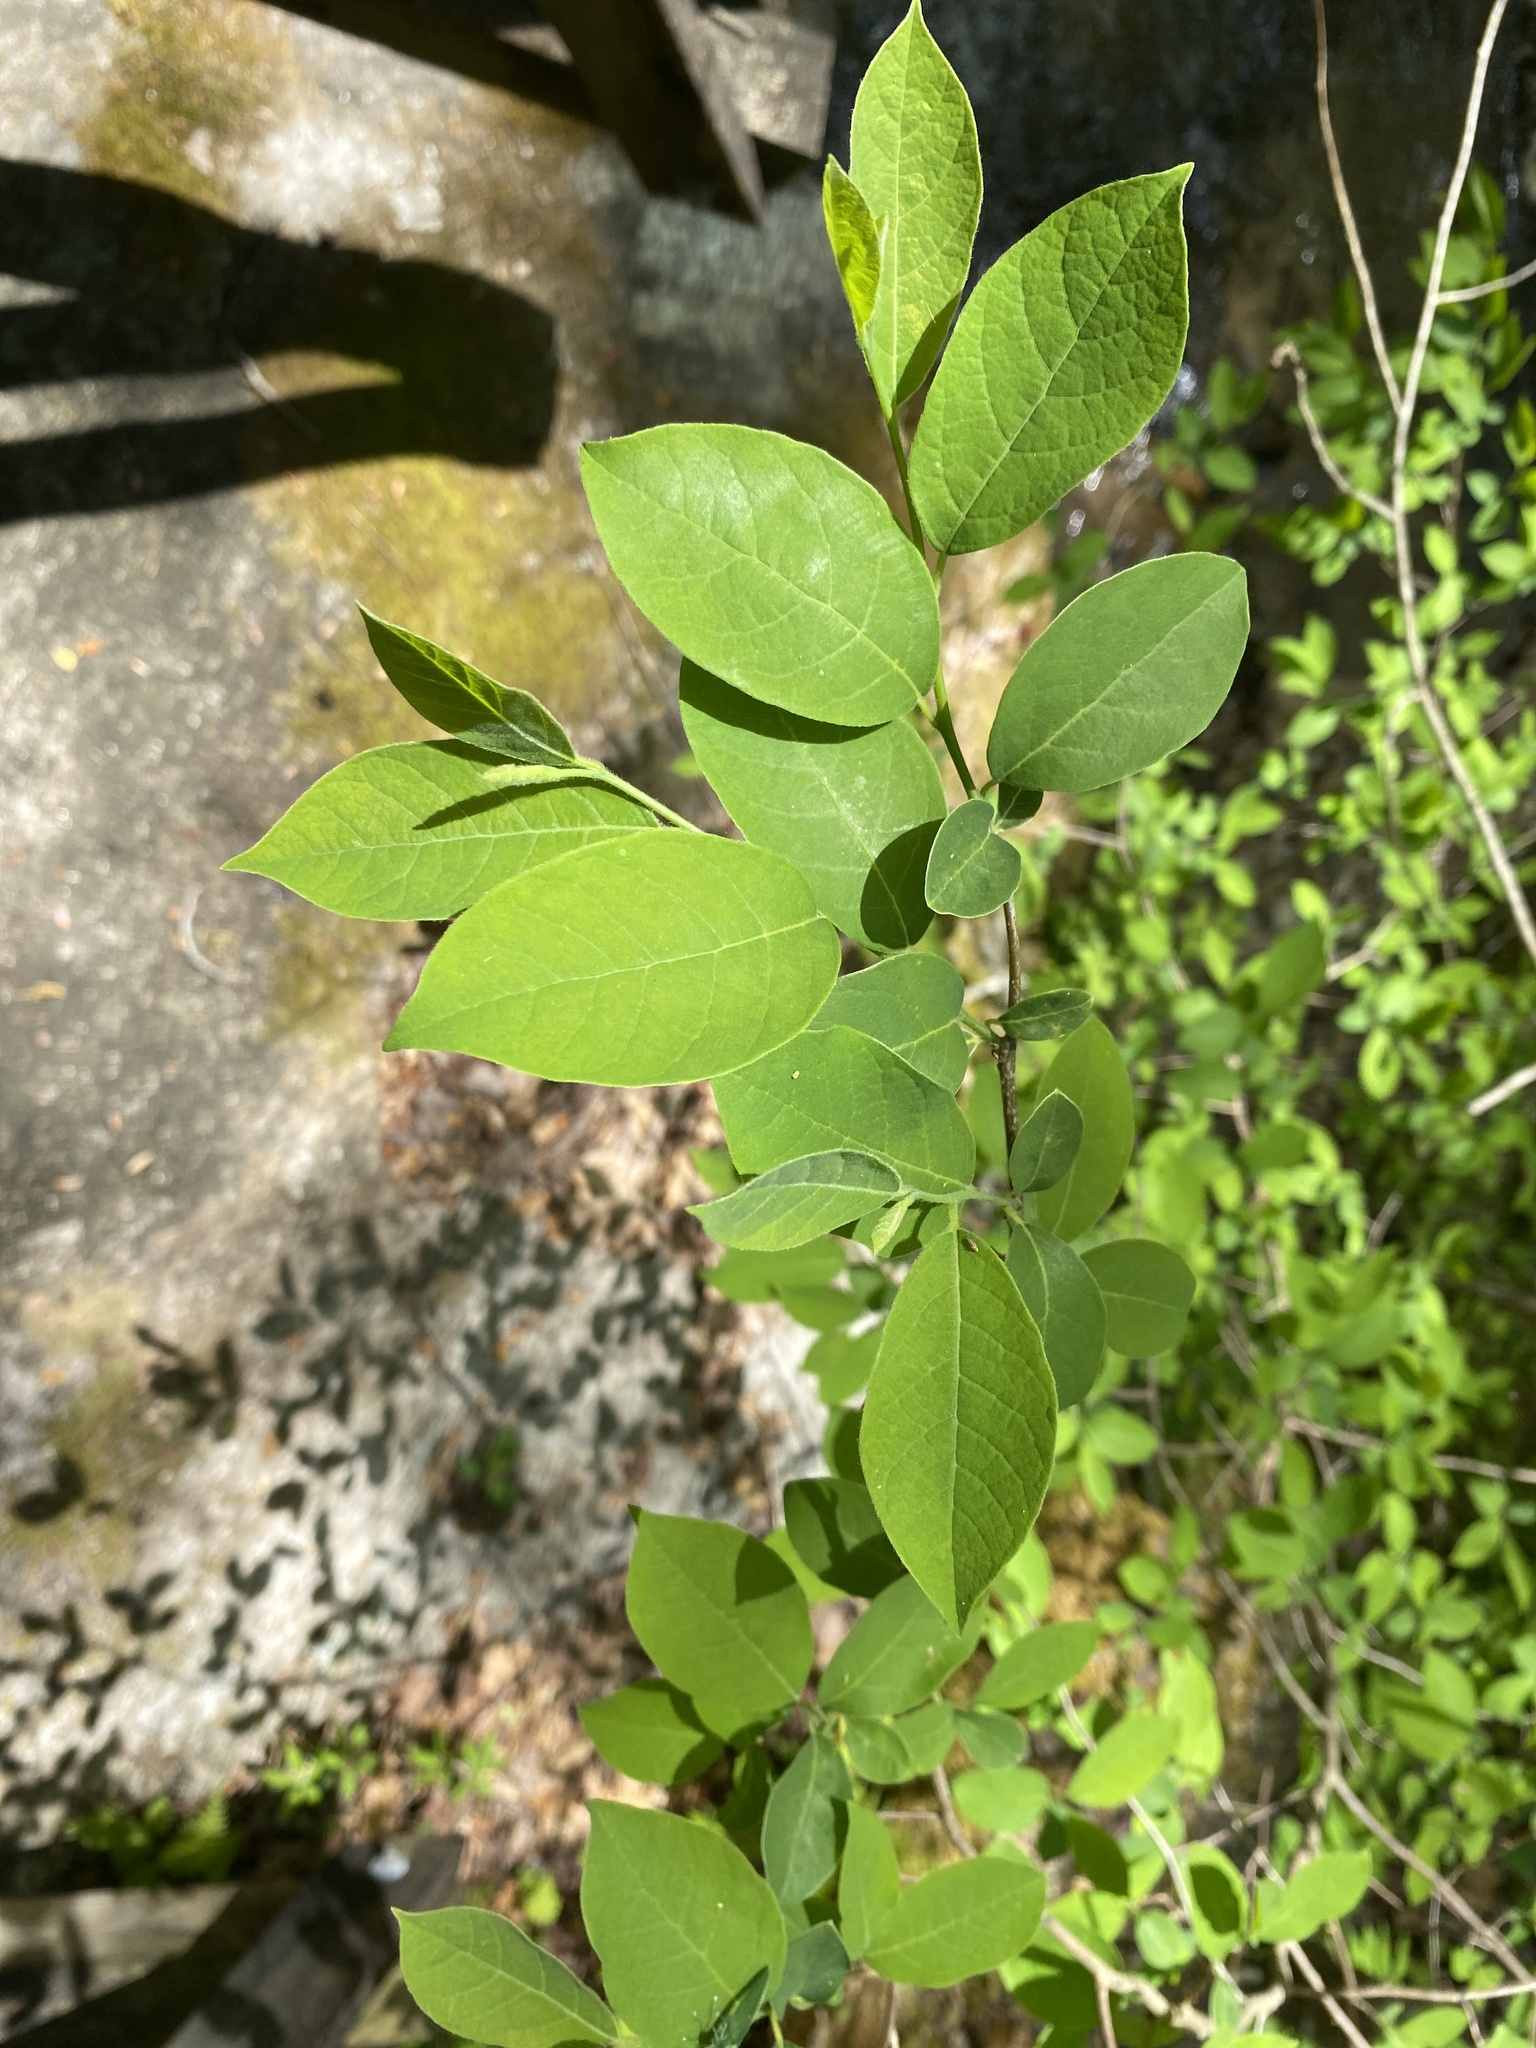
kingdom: Plantae
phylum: Tracheophyta
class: Magnoliopsida
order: Laurales
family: Lauraceae
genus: Lindera
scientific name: Lindera benzoin
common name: Spicebush
